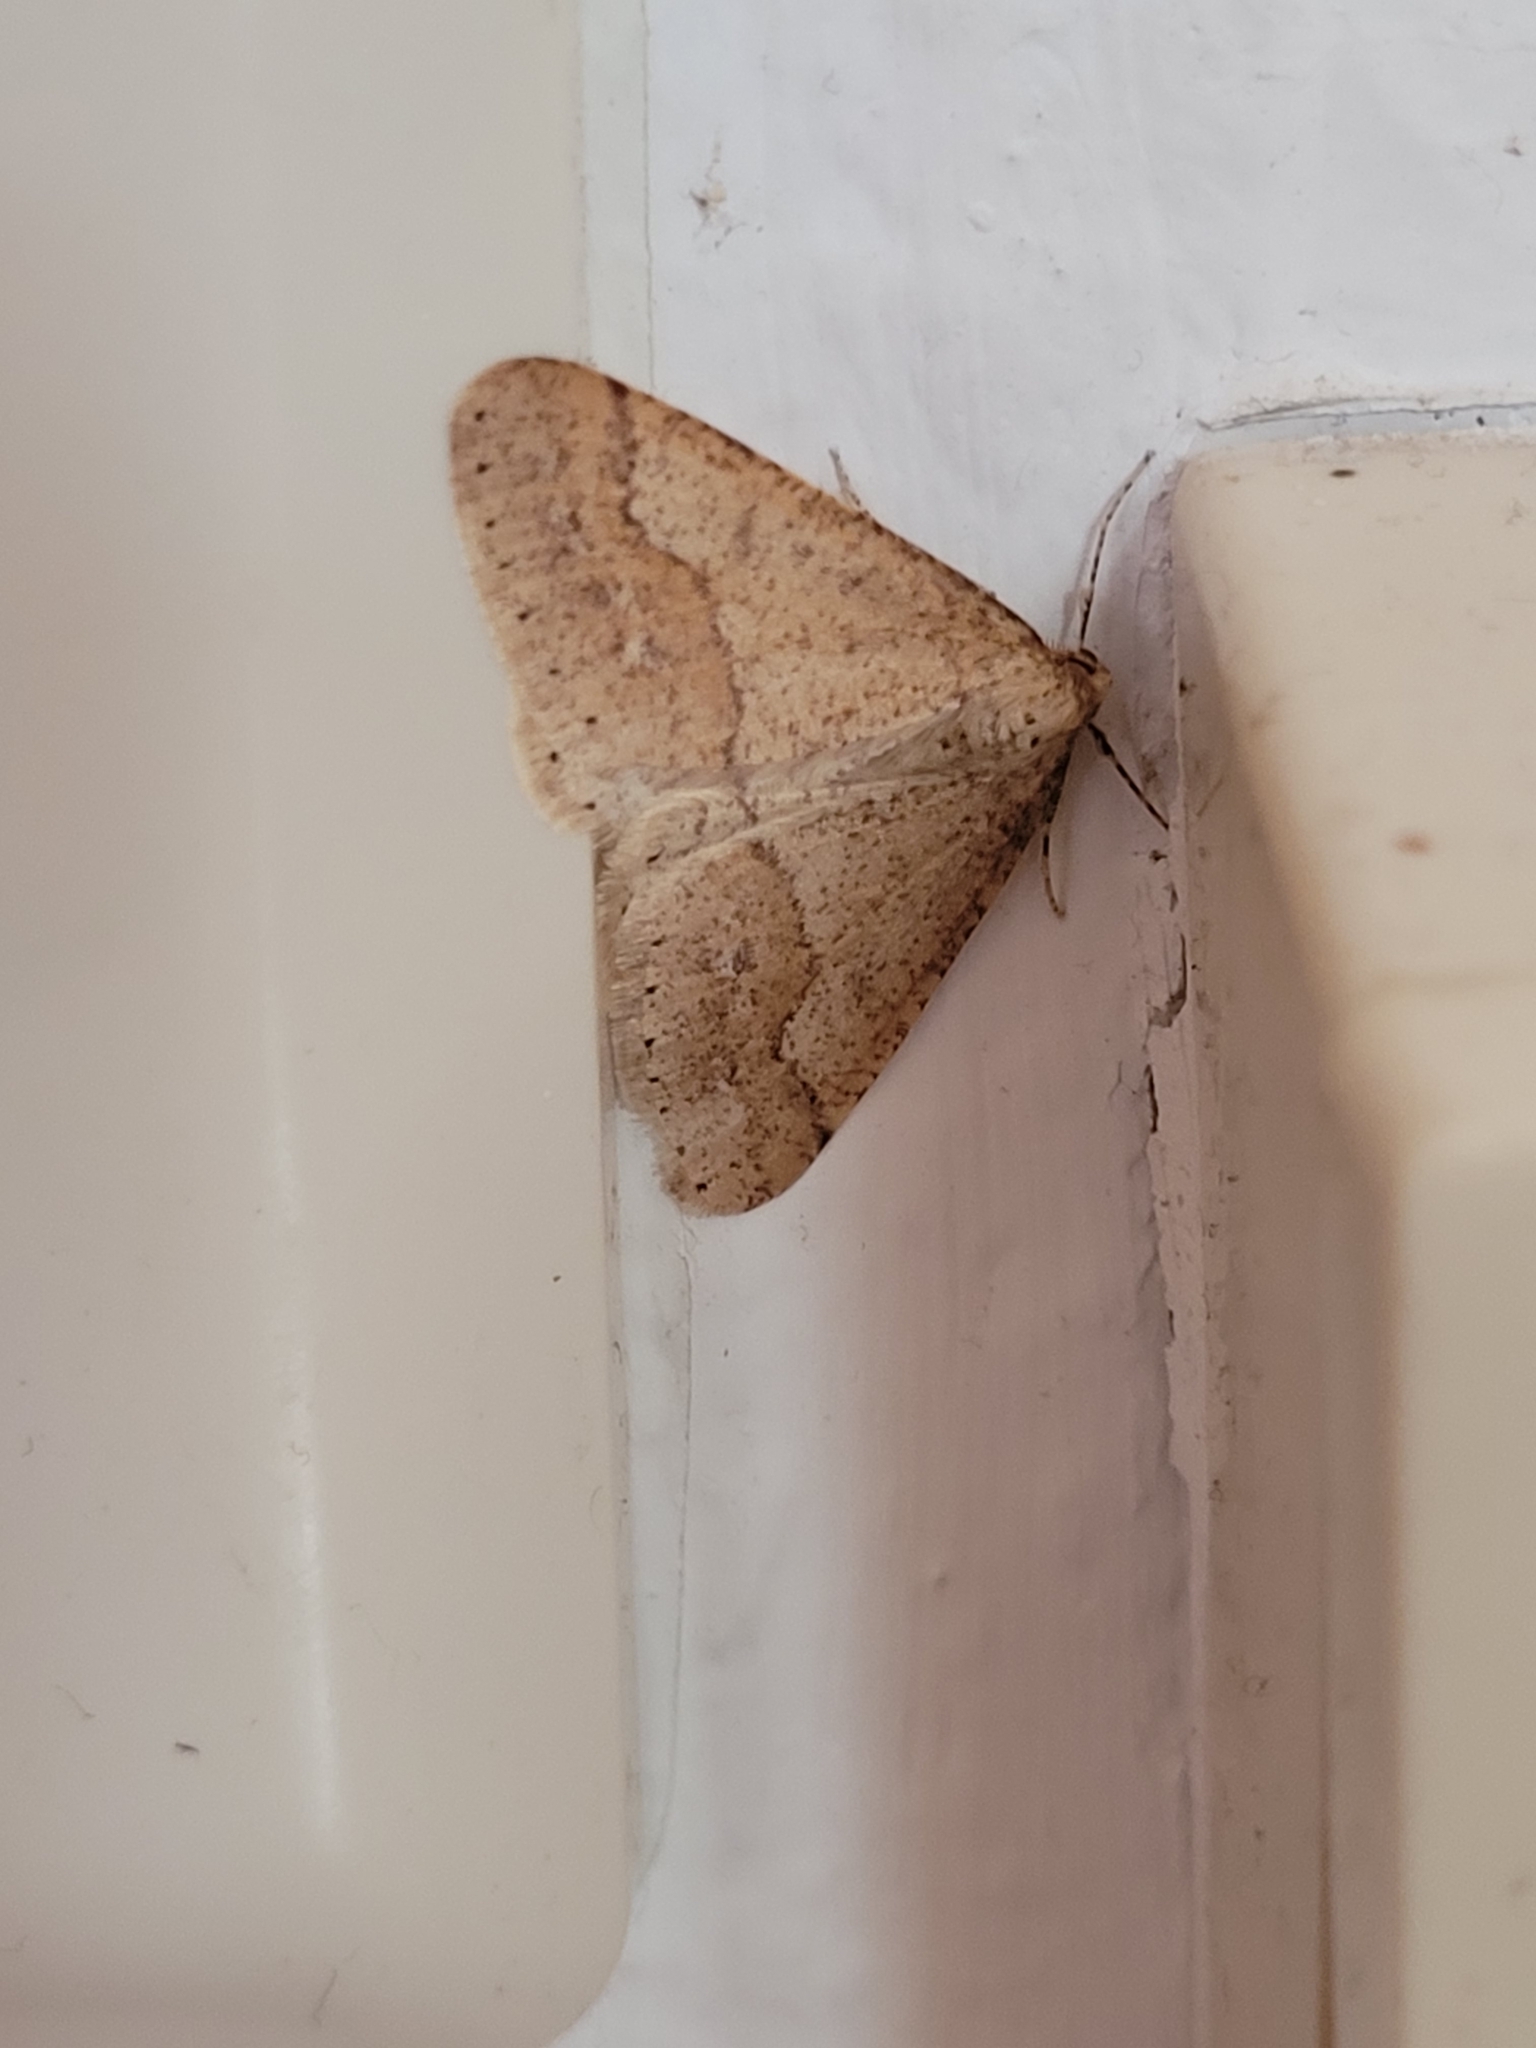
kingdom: Animalia
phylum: Arthropoda
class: Insecta
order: Lepidoptera
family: Geometridae
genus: Agriopis
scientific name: Agriopis marginaria
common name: Dotted border
